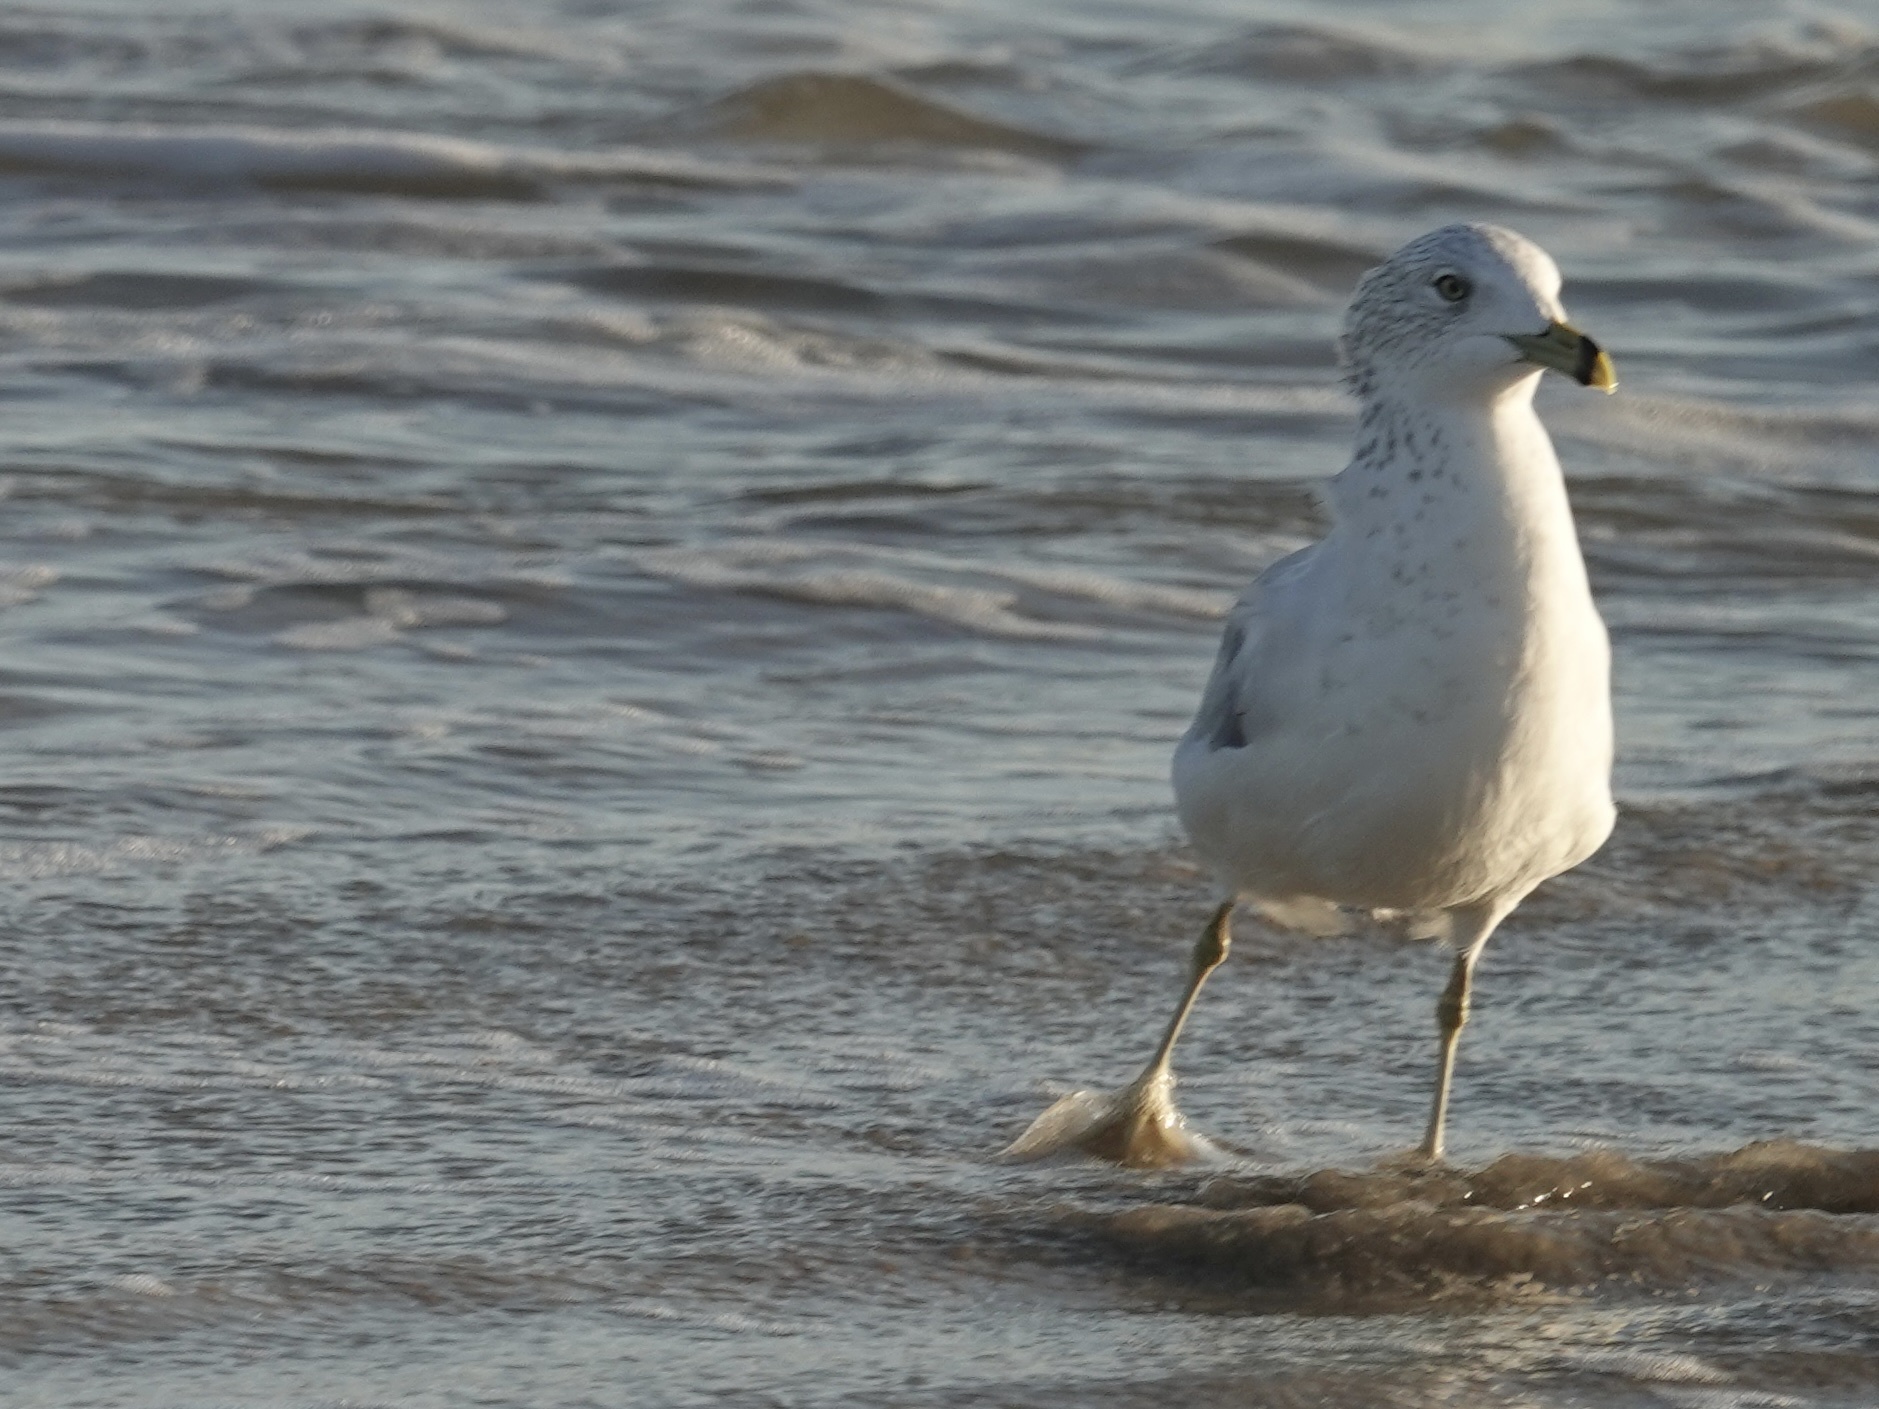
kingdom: Animalia
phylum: Chordata
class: Aves
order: Charadriiformes
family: Laridae
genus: Larus
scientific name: Larus delawarensis
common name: Ring-billed gull
